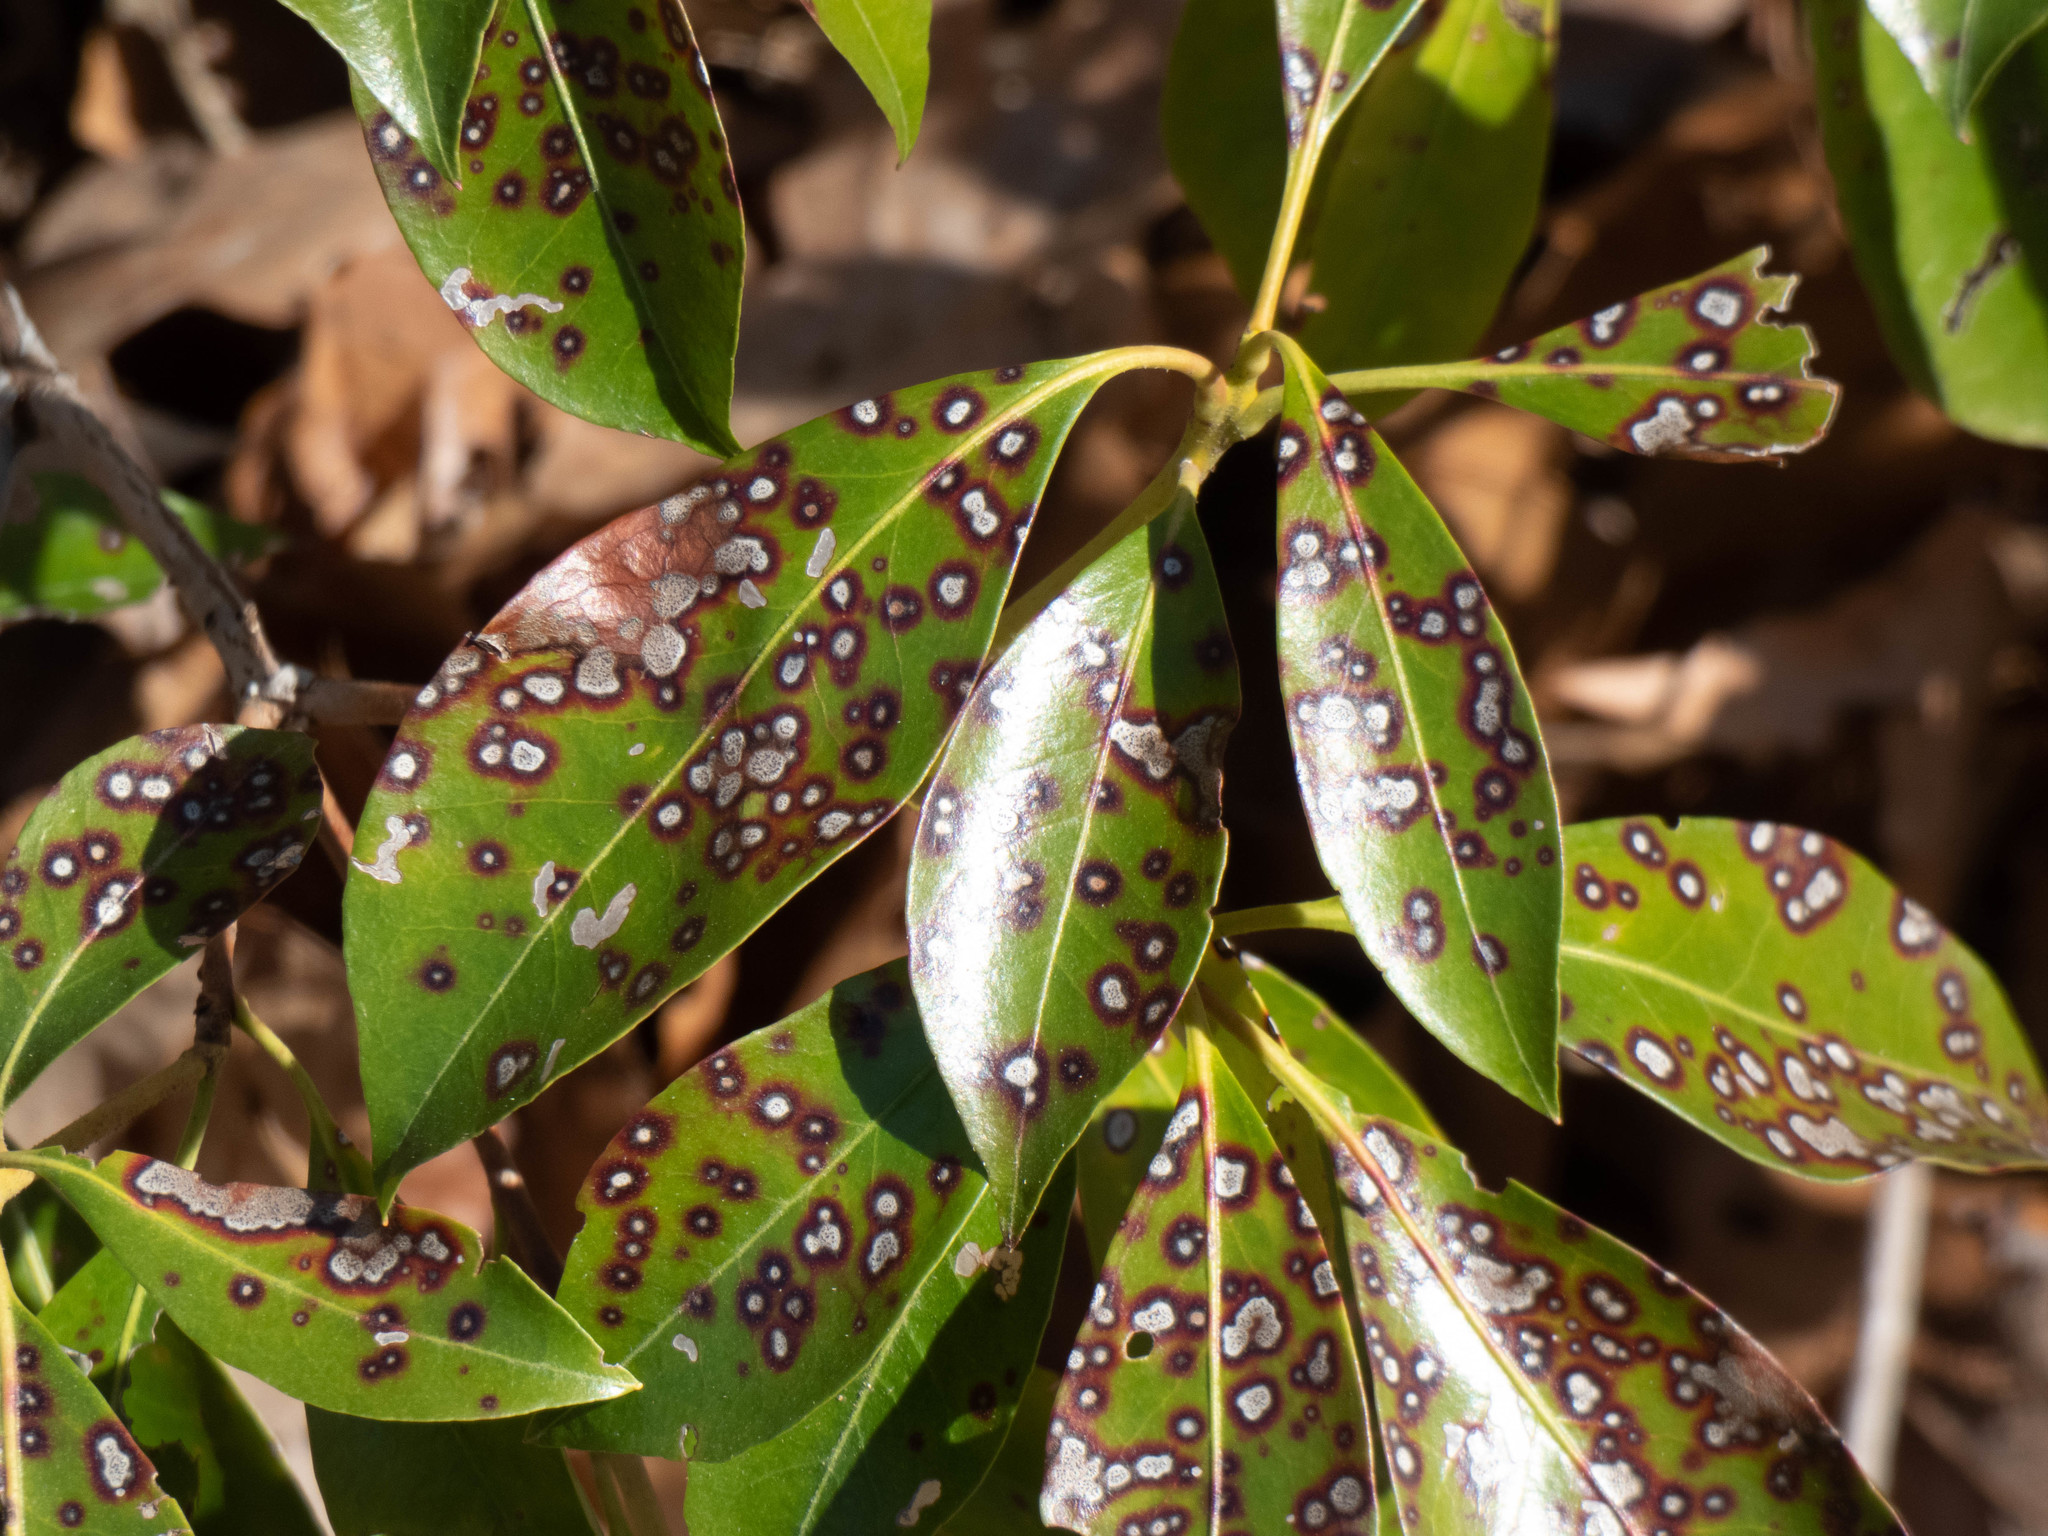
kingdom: Fungi
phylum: Ascomycota
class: Dothideomycetes
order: Mycosphaerellales
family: Mycosphaerellaceae
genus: Mycosphaerella
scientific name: Mycosphaerella colorata
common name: Mountain laurel leaf spot
